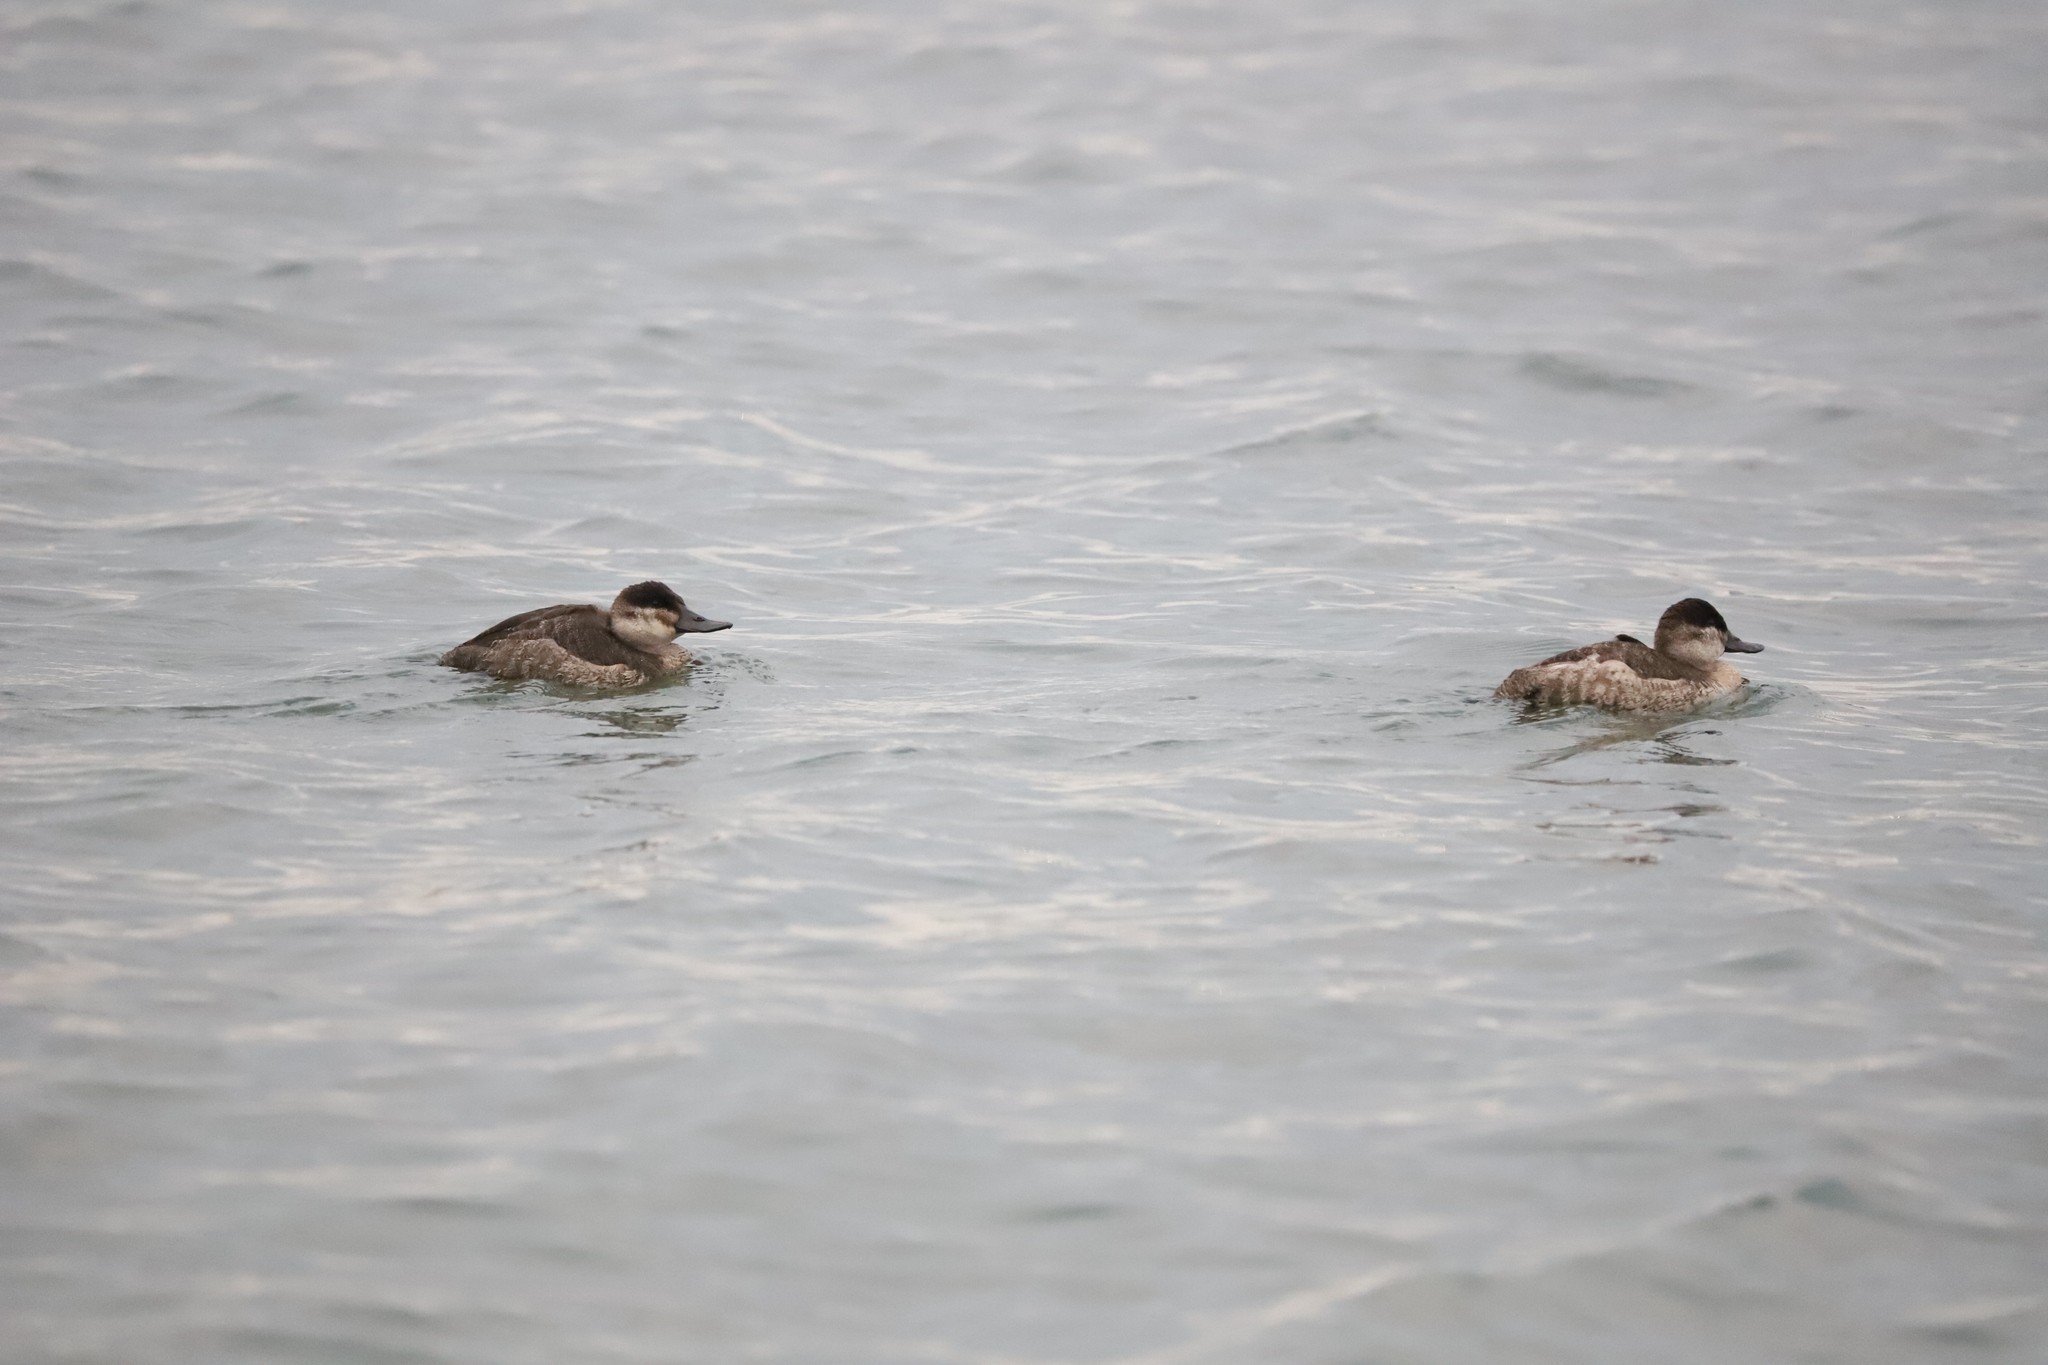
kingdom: Animalia
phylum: Chordata
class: Aves
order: Anseriformes
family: Anatidae
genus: Oxyura
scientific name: Oxyura jamaicensis
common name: Ruddy duck
